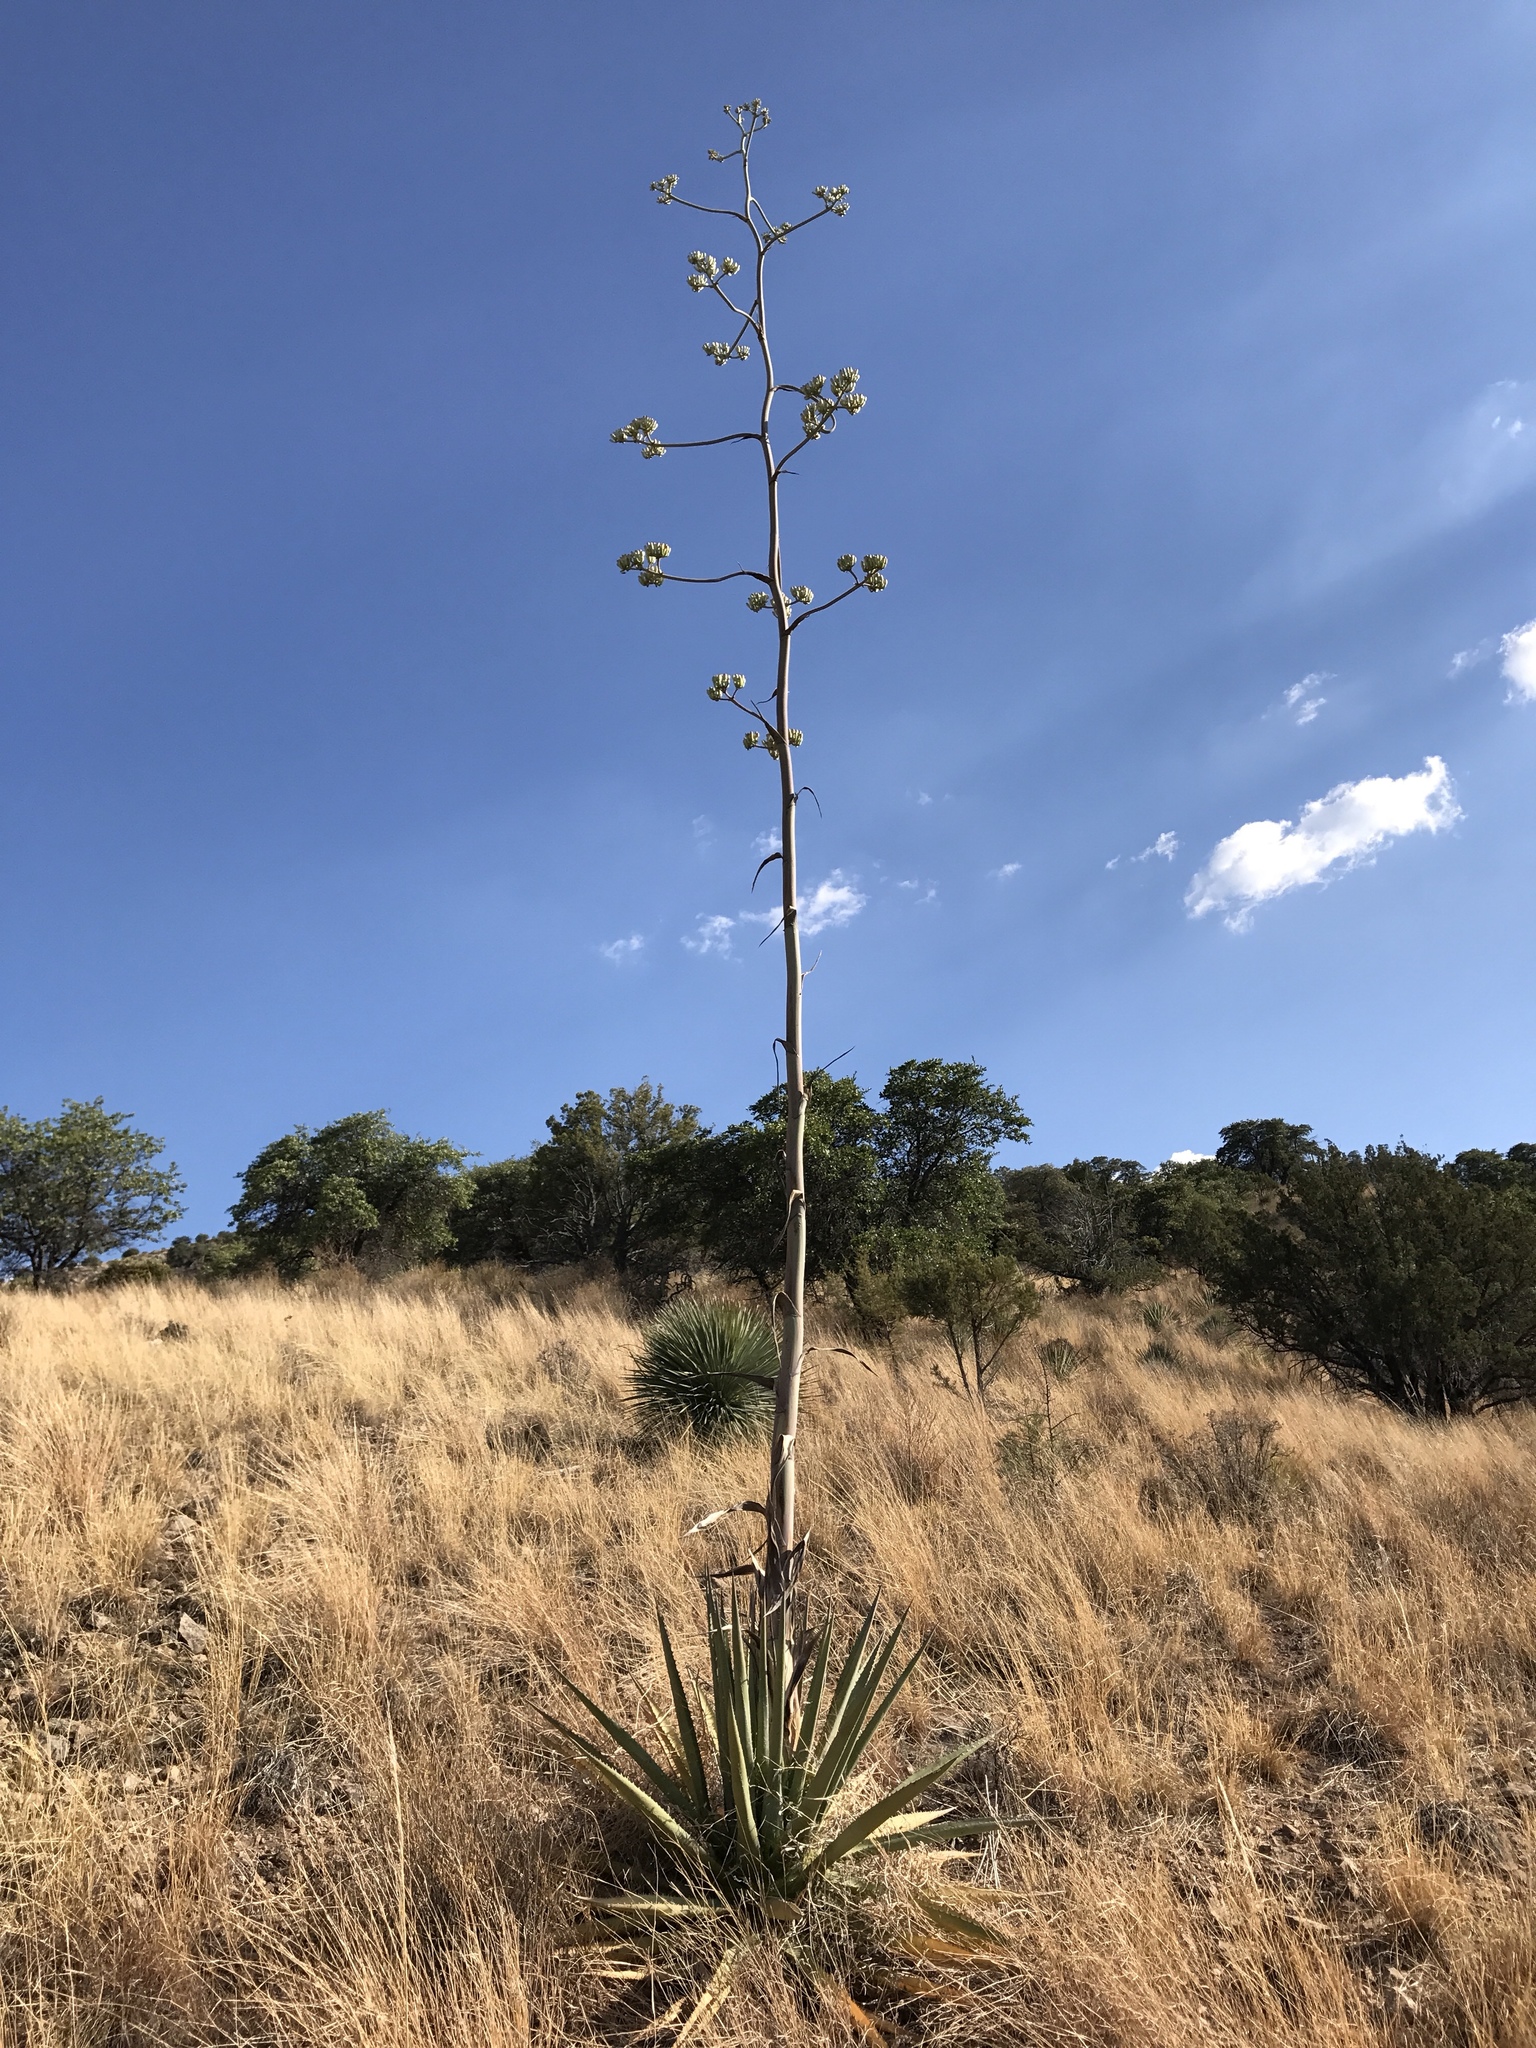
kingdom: Plantae
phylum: Tracheophyta
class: Liliopsida
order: Asparagales
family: Asparagaceae
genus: Agave
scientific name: Agave palmeri
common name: Palmer agave
